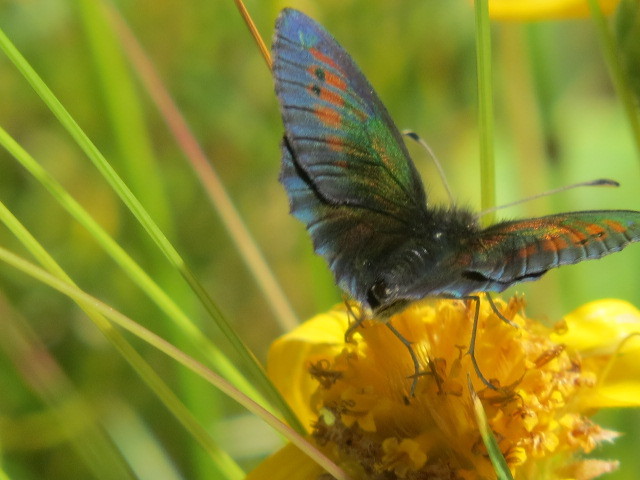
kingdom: Animalia
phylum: Arthropoda
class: Insecta
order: Lepidoptera
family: Nymphalidae
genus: Erebia
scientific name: Erebia tyndarus
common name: Swiss brassy ringlet
